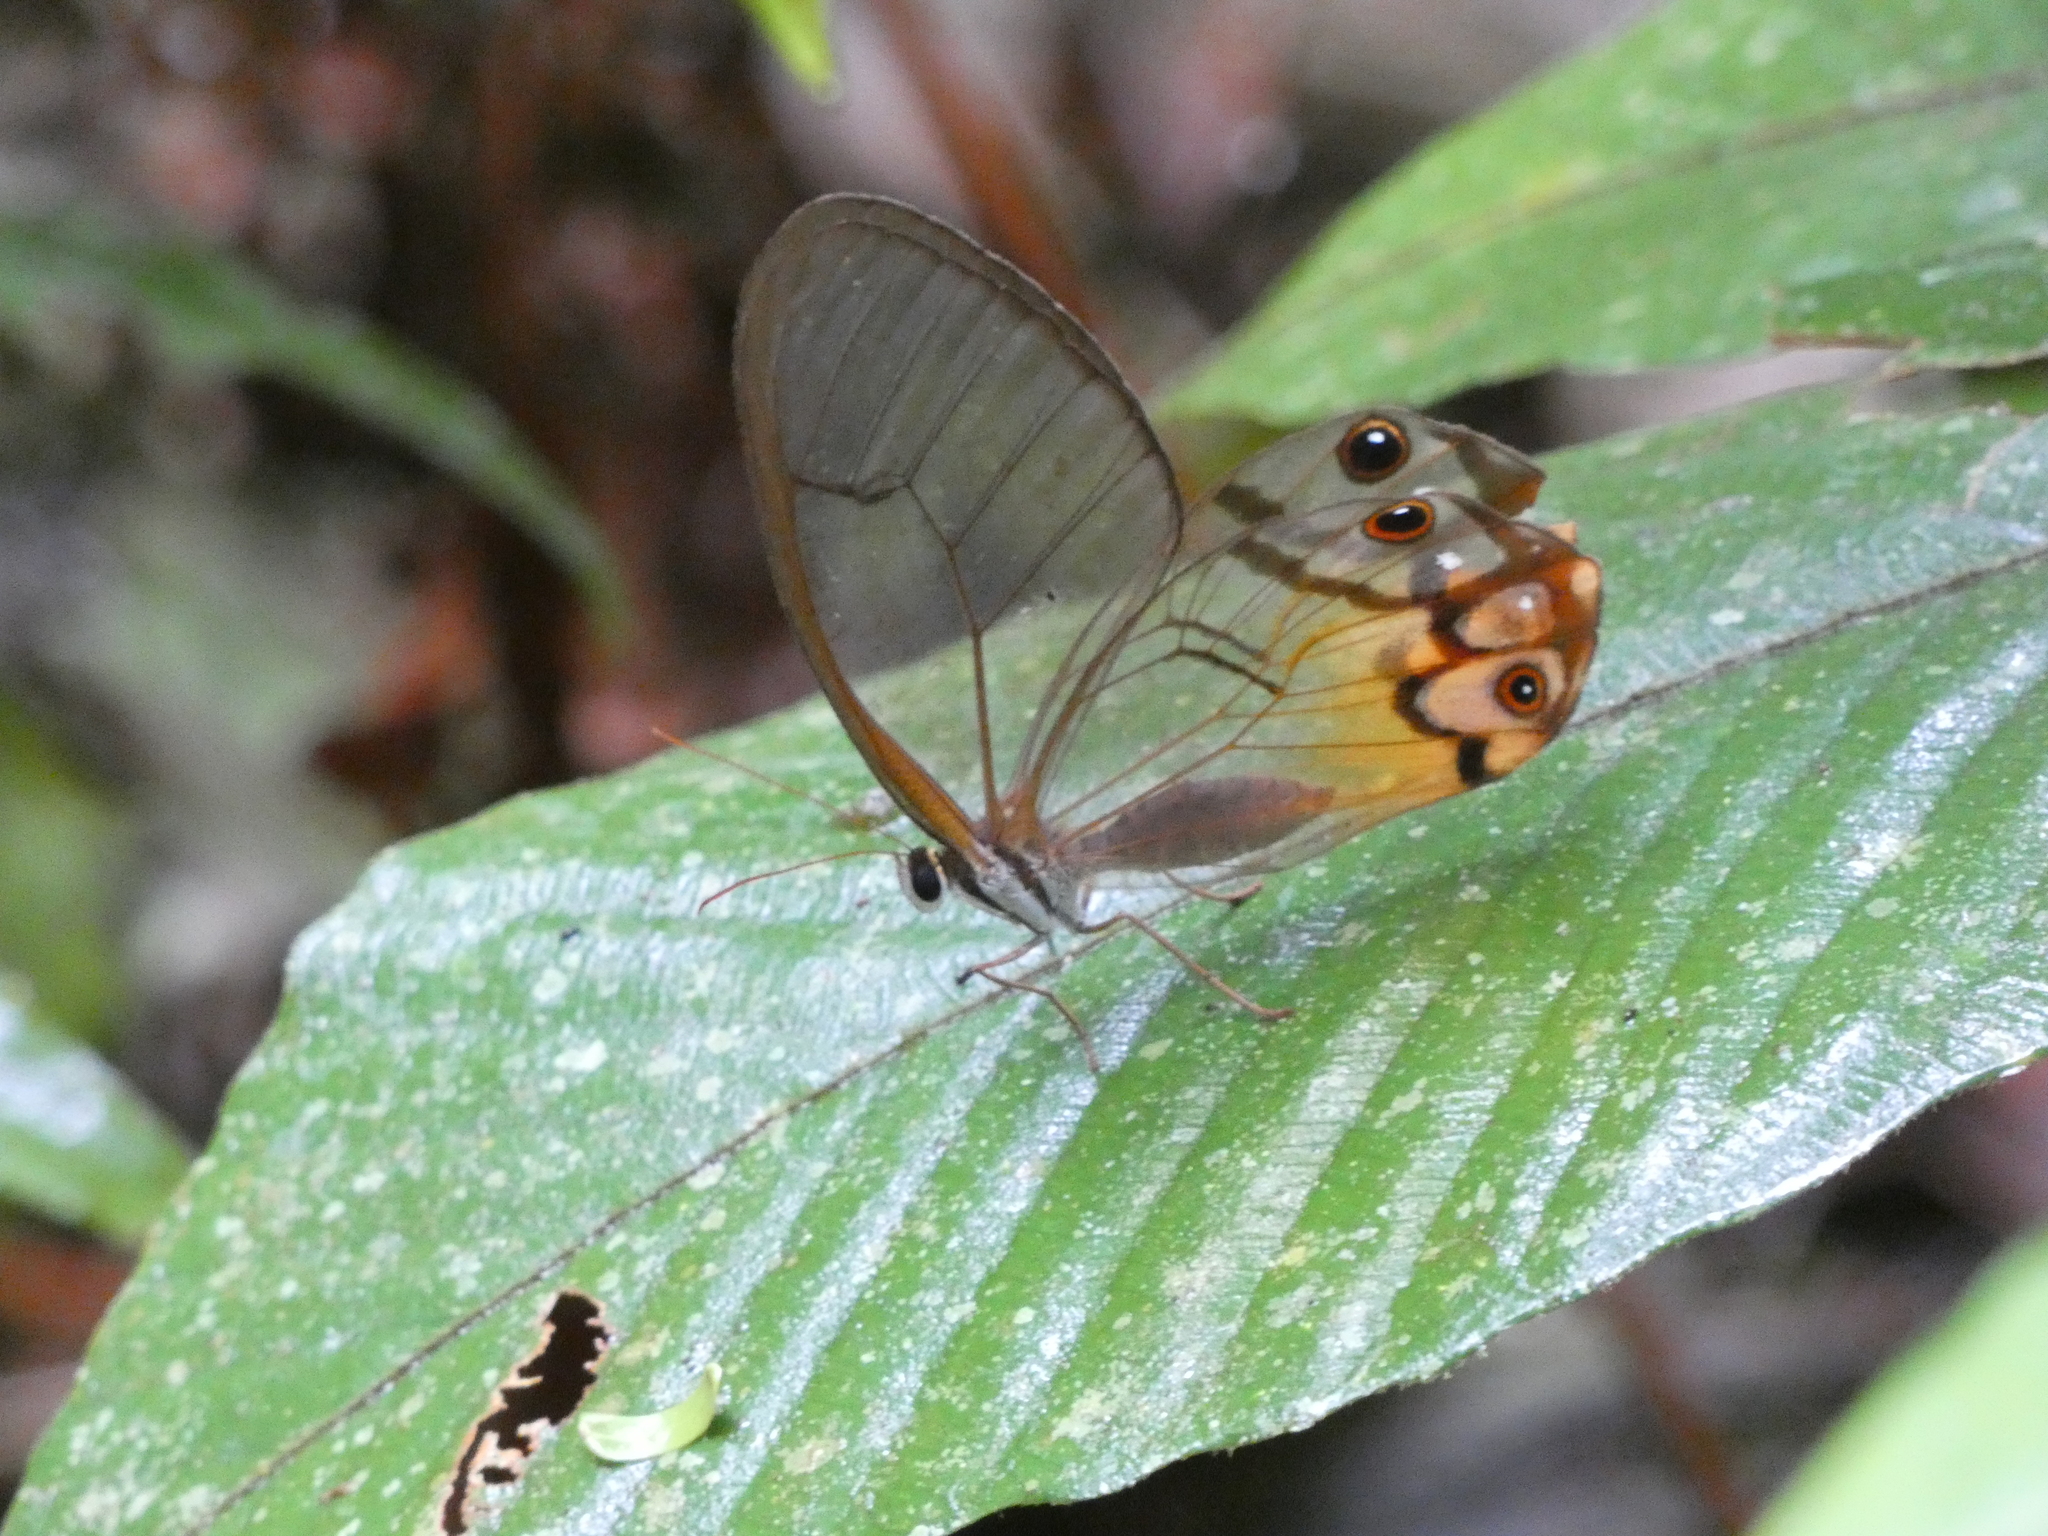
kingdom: Animalia
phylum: Arthropoda
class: Insecta
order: Lepidoptera
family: Nymphalidae
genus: Haetera
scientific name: Haetera piera
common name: Amber phantom
